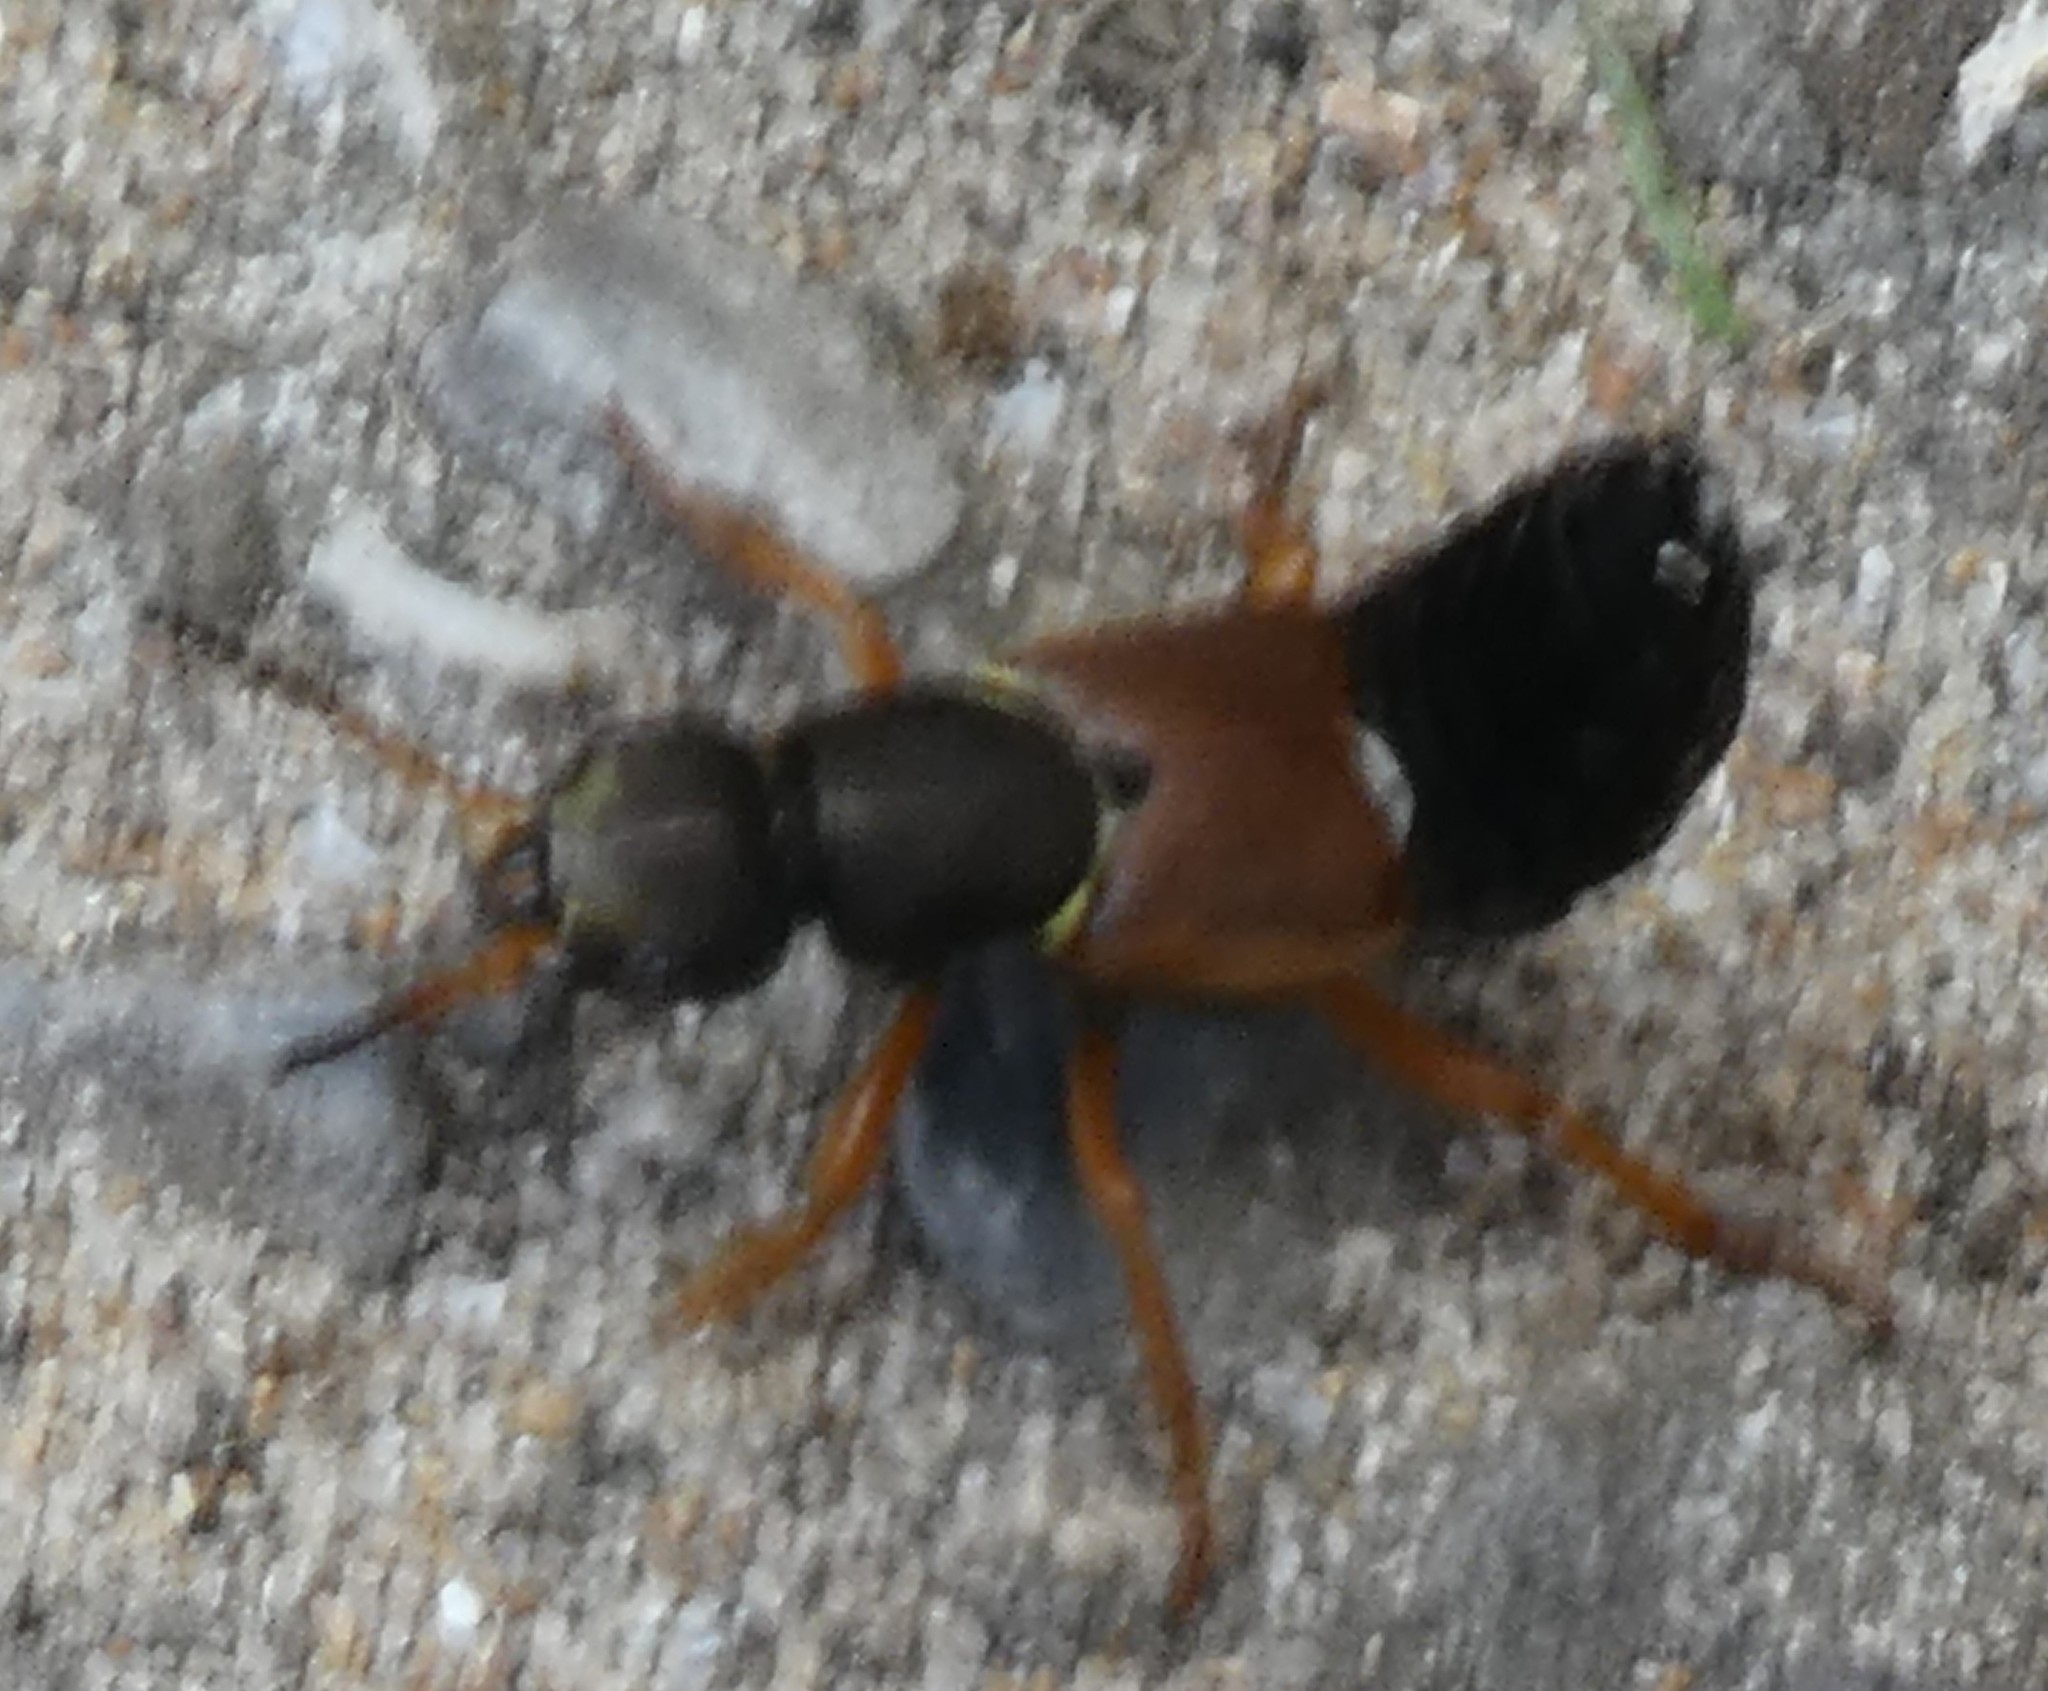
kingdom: Animalia
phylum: Arthropoda
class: Insecta
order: Coleoptera
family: Staphylinidae
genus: Staphylinus
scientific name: Staphylinus dimidiaticornis
